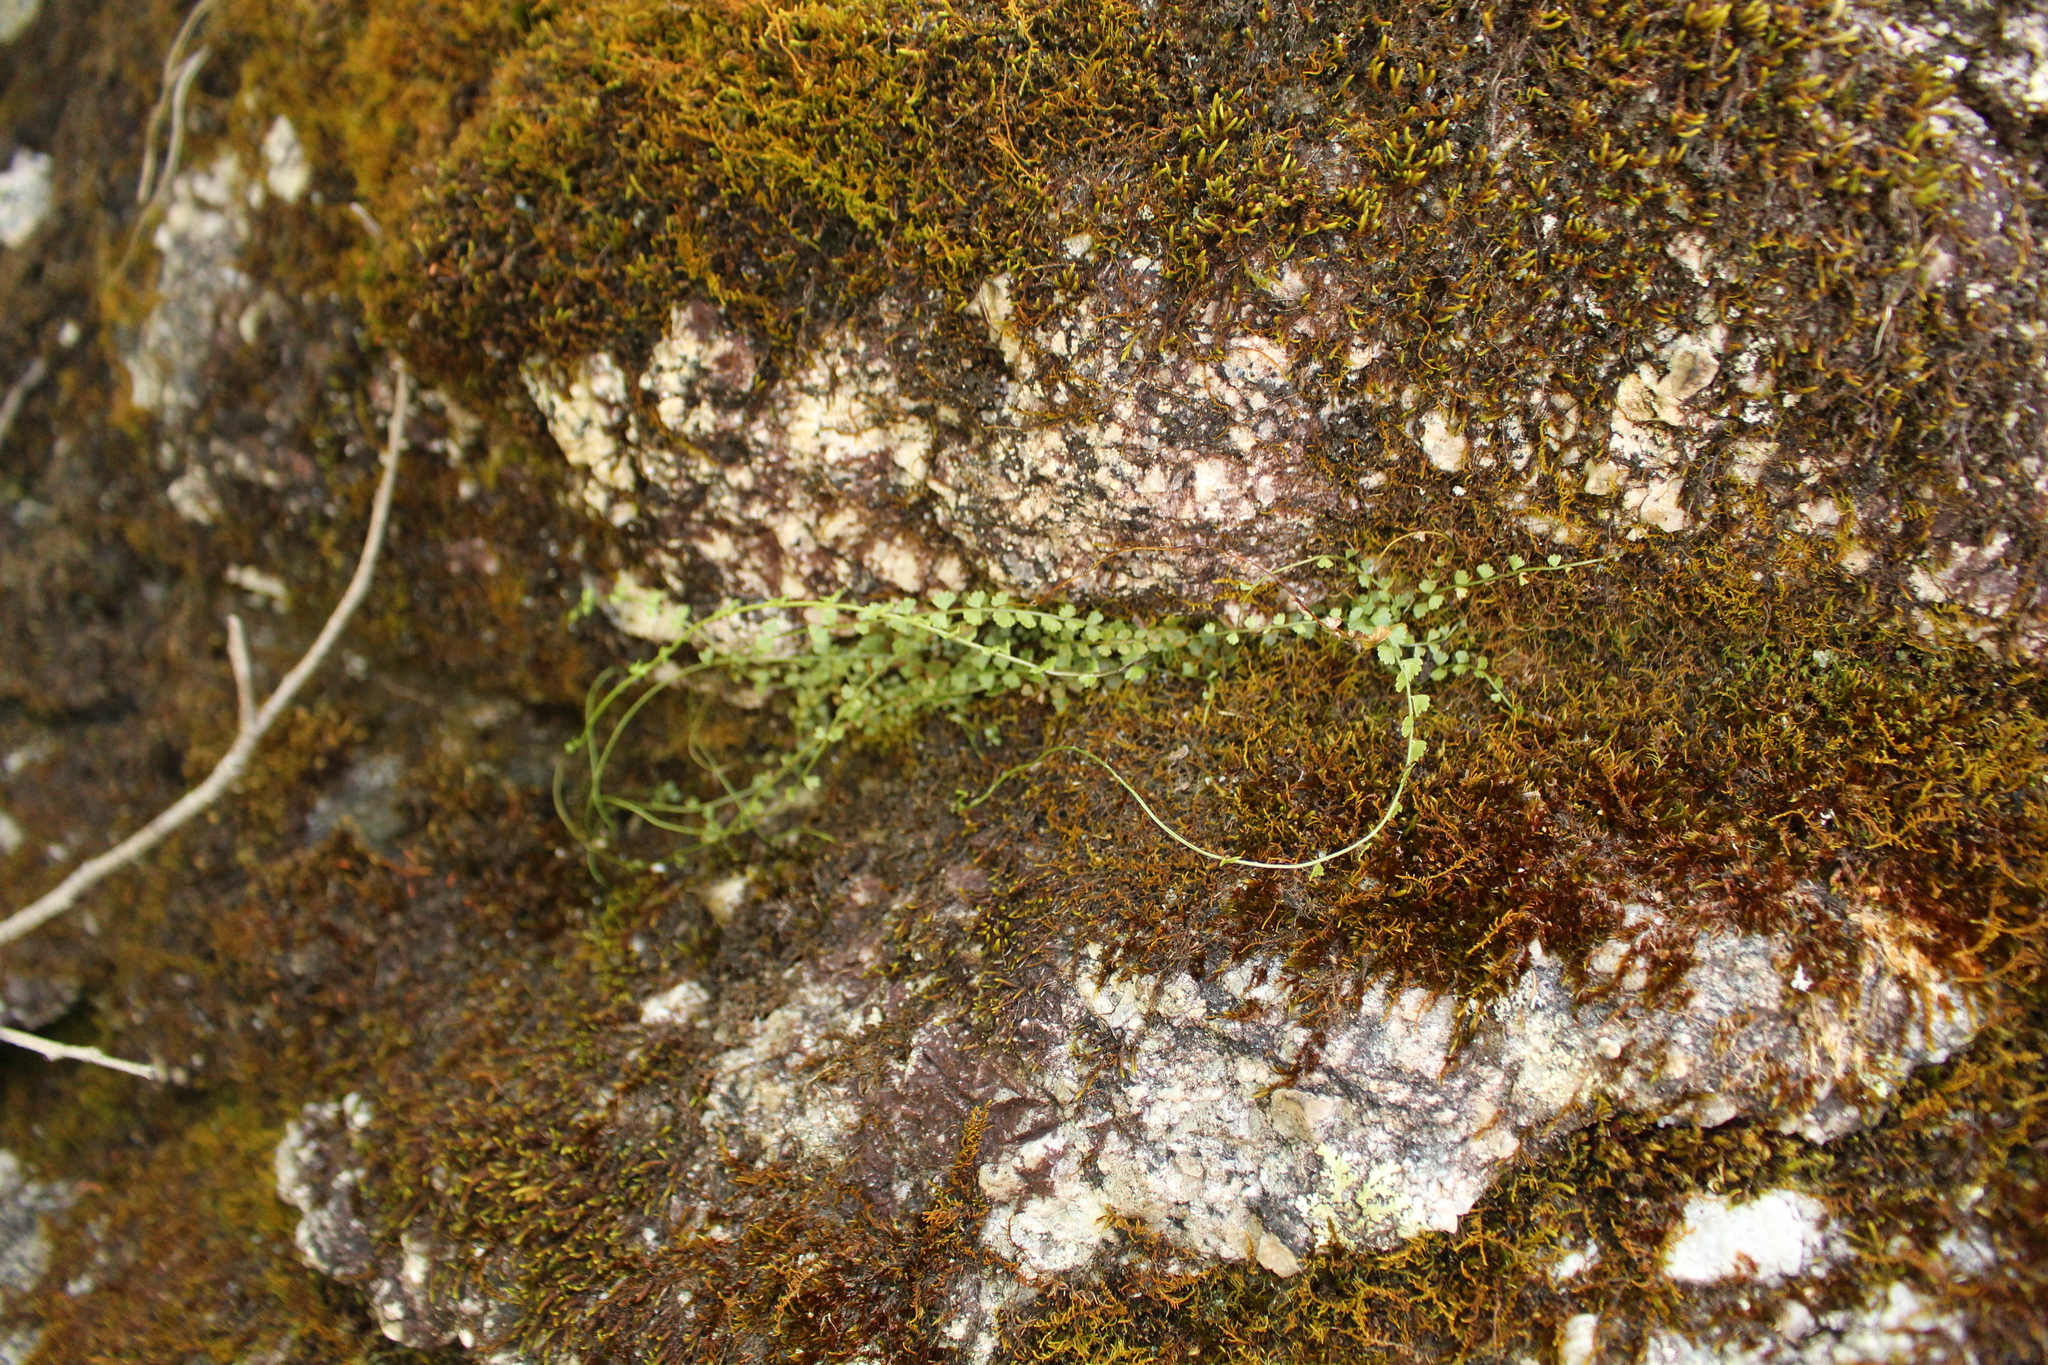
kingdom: Plantae
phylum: Tracheophyta
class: Polypodiopsida
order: Polypodiales
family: Aspleniaceae
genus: Asplenium
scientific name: Asplenium flabellifolium
